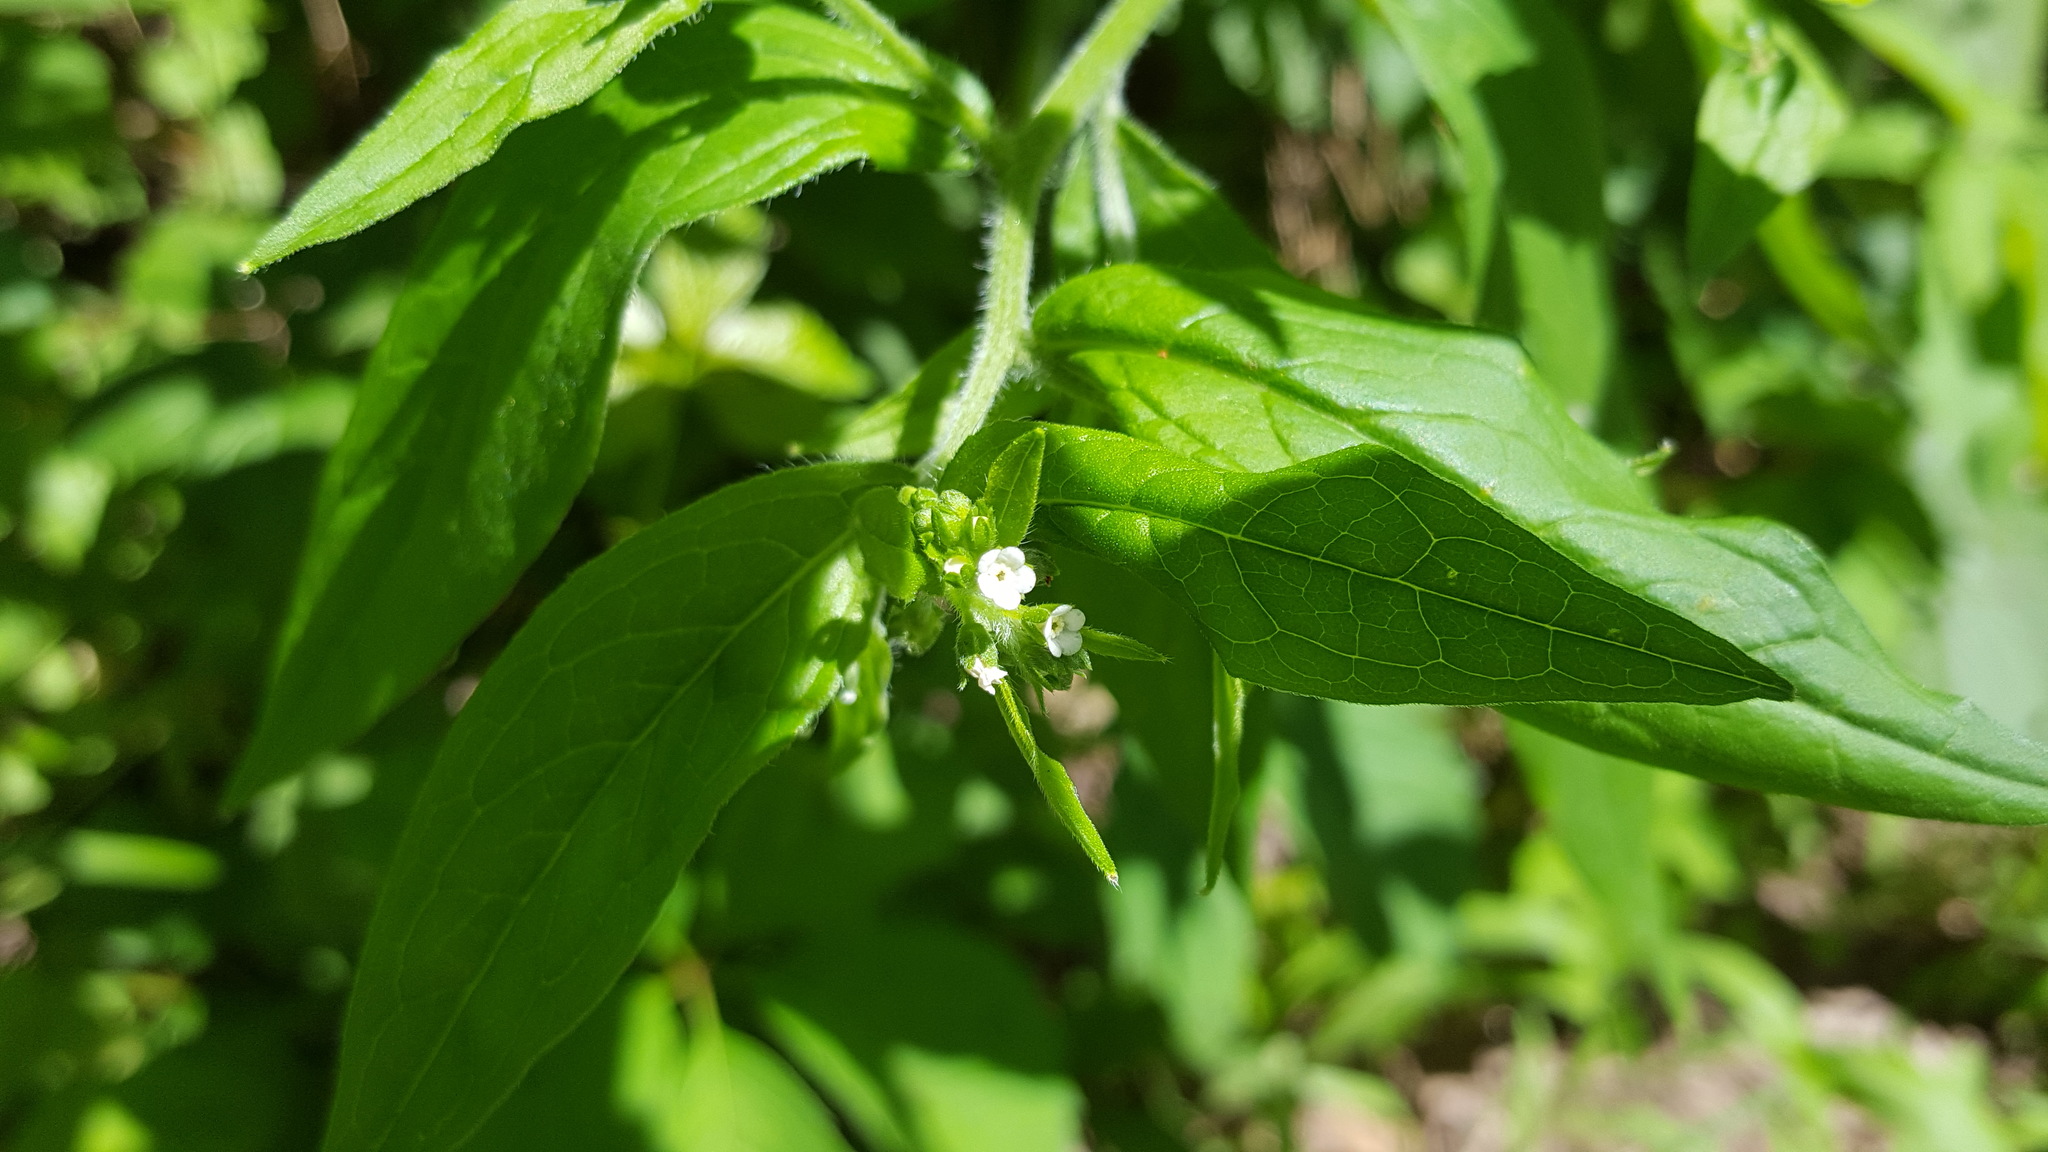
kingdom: Plantae
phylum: Tracheophyta
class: Magnoliopsida
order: Boraginales
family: Boraginaceae
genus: Hackelia
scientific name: Hackelia virginiana
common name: Beggar's-lice
